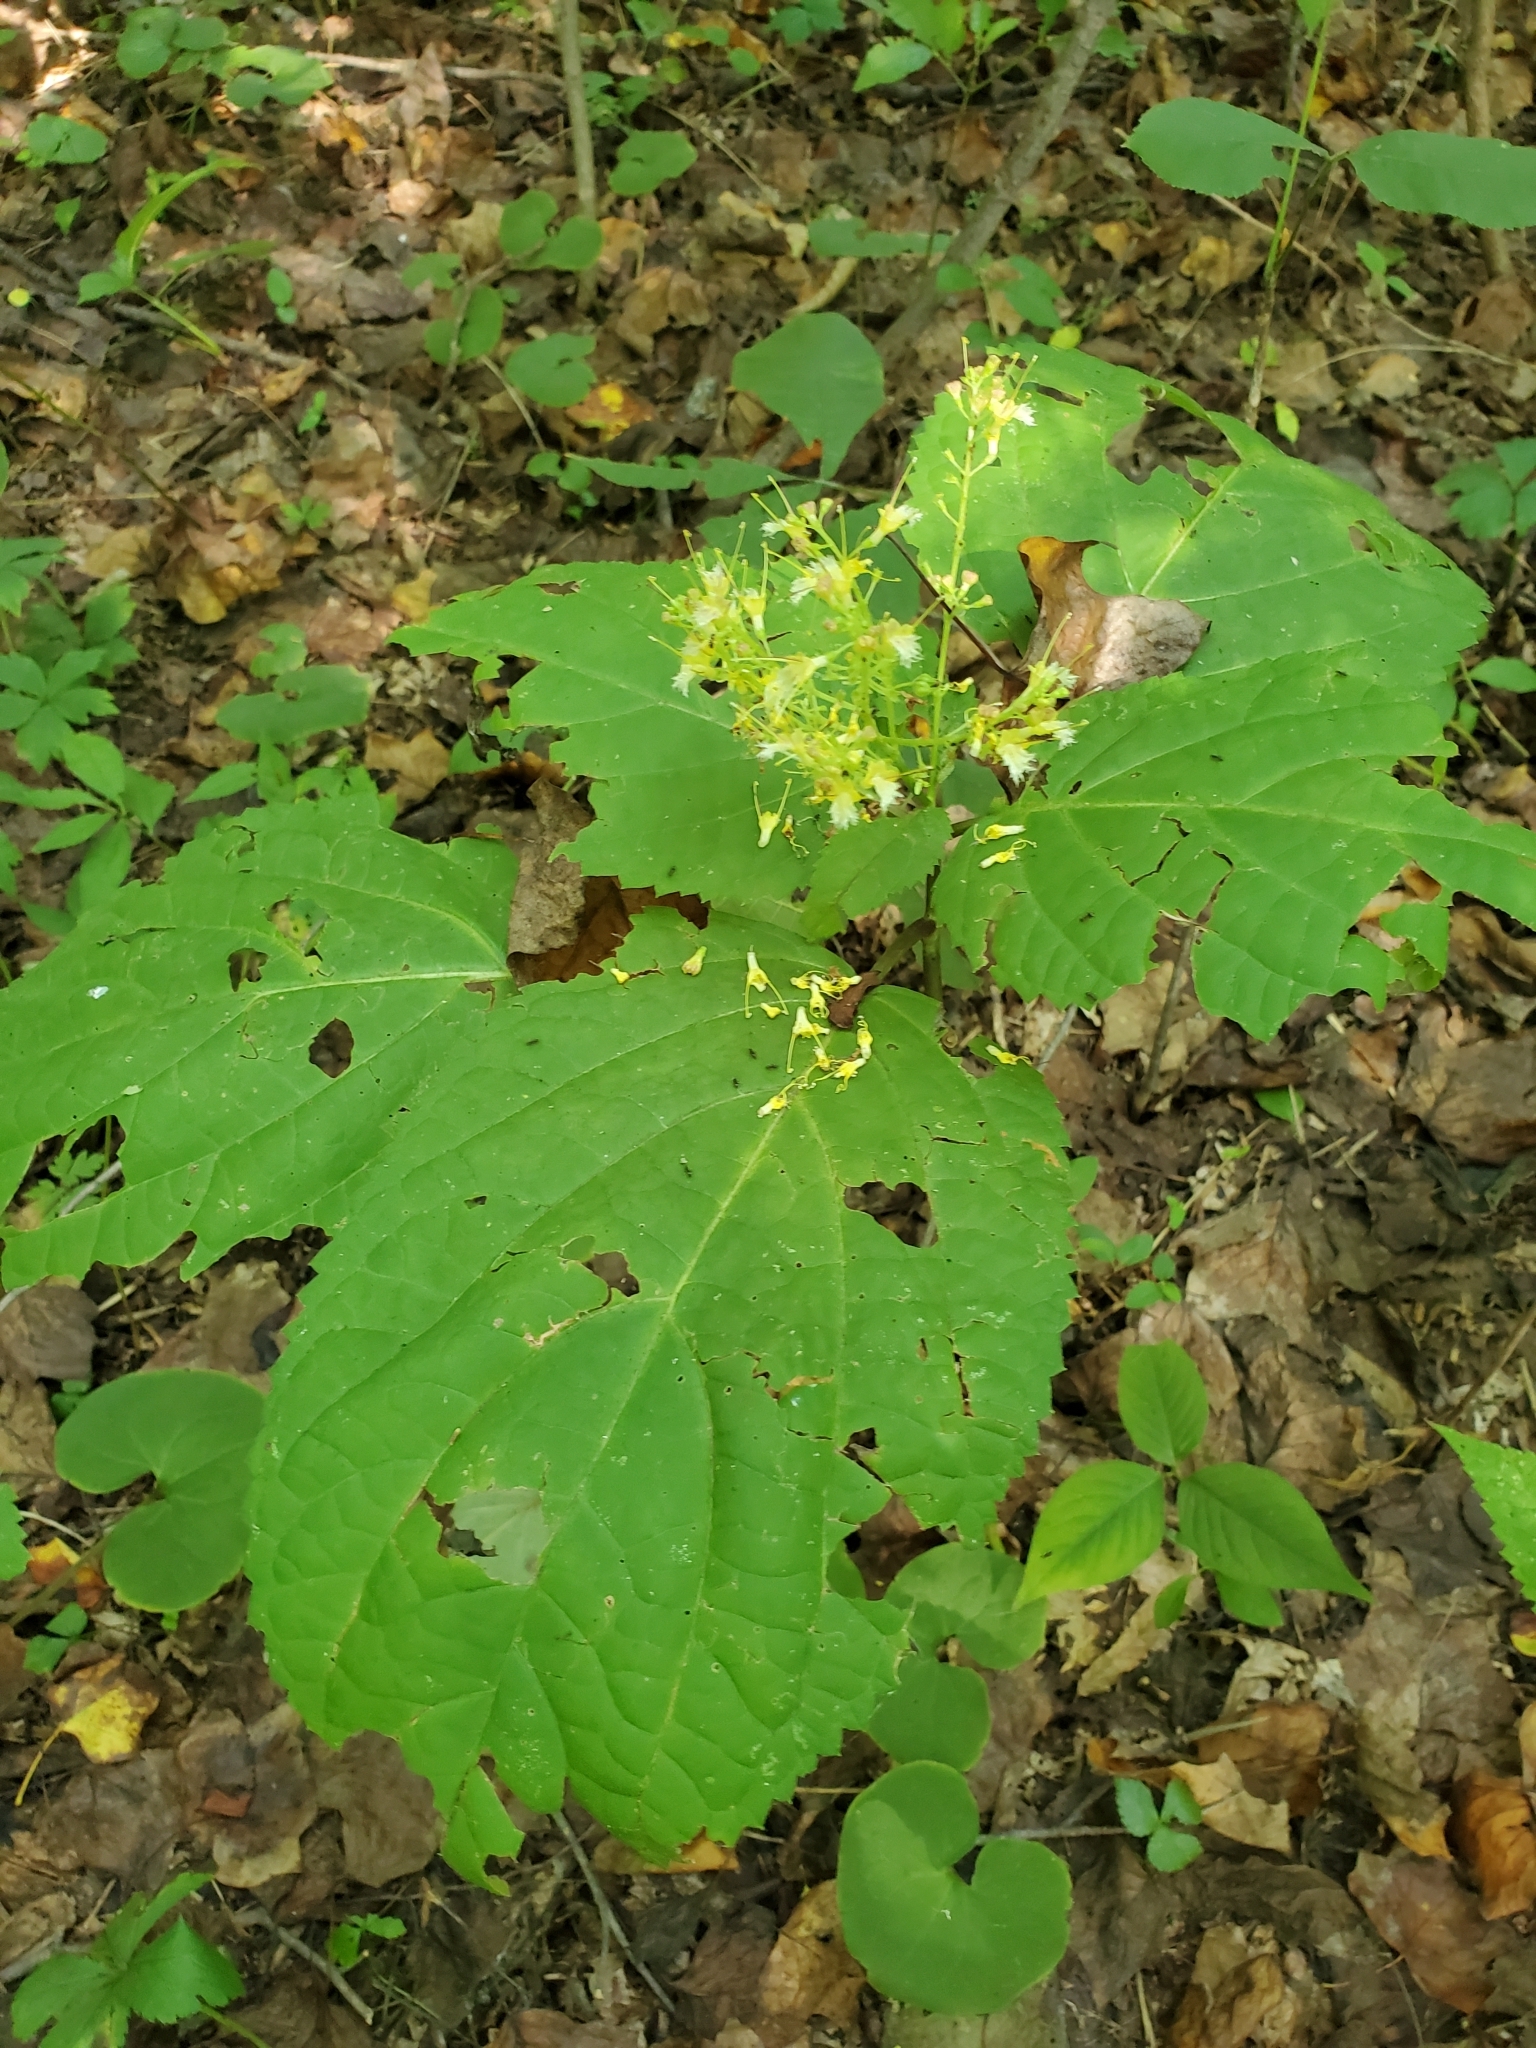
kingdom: Plantae
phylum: Tracheophyta
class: Magnoliopsida
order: Lamiales
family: Lamiaceae
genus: Collinsonia
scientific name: Collinsonia canadensis
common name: Northern horsebalm
